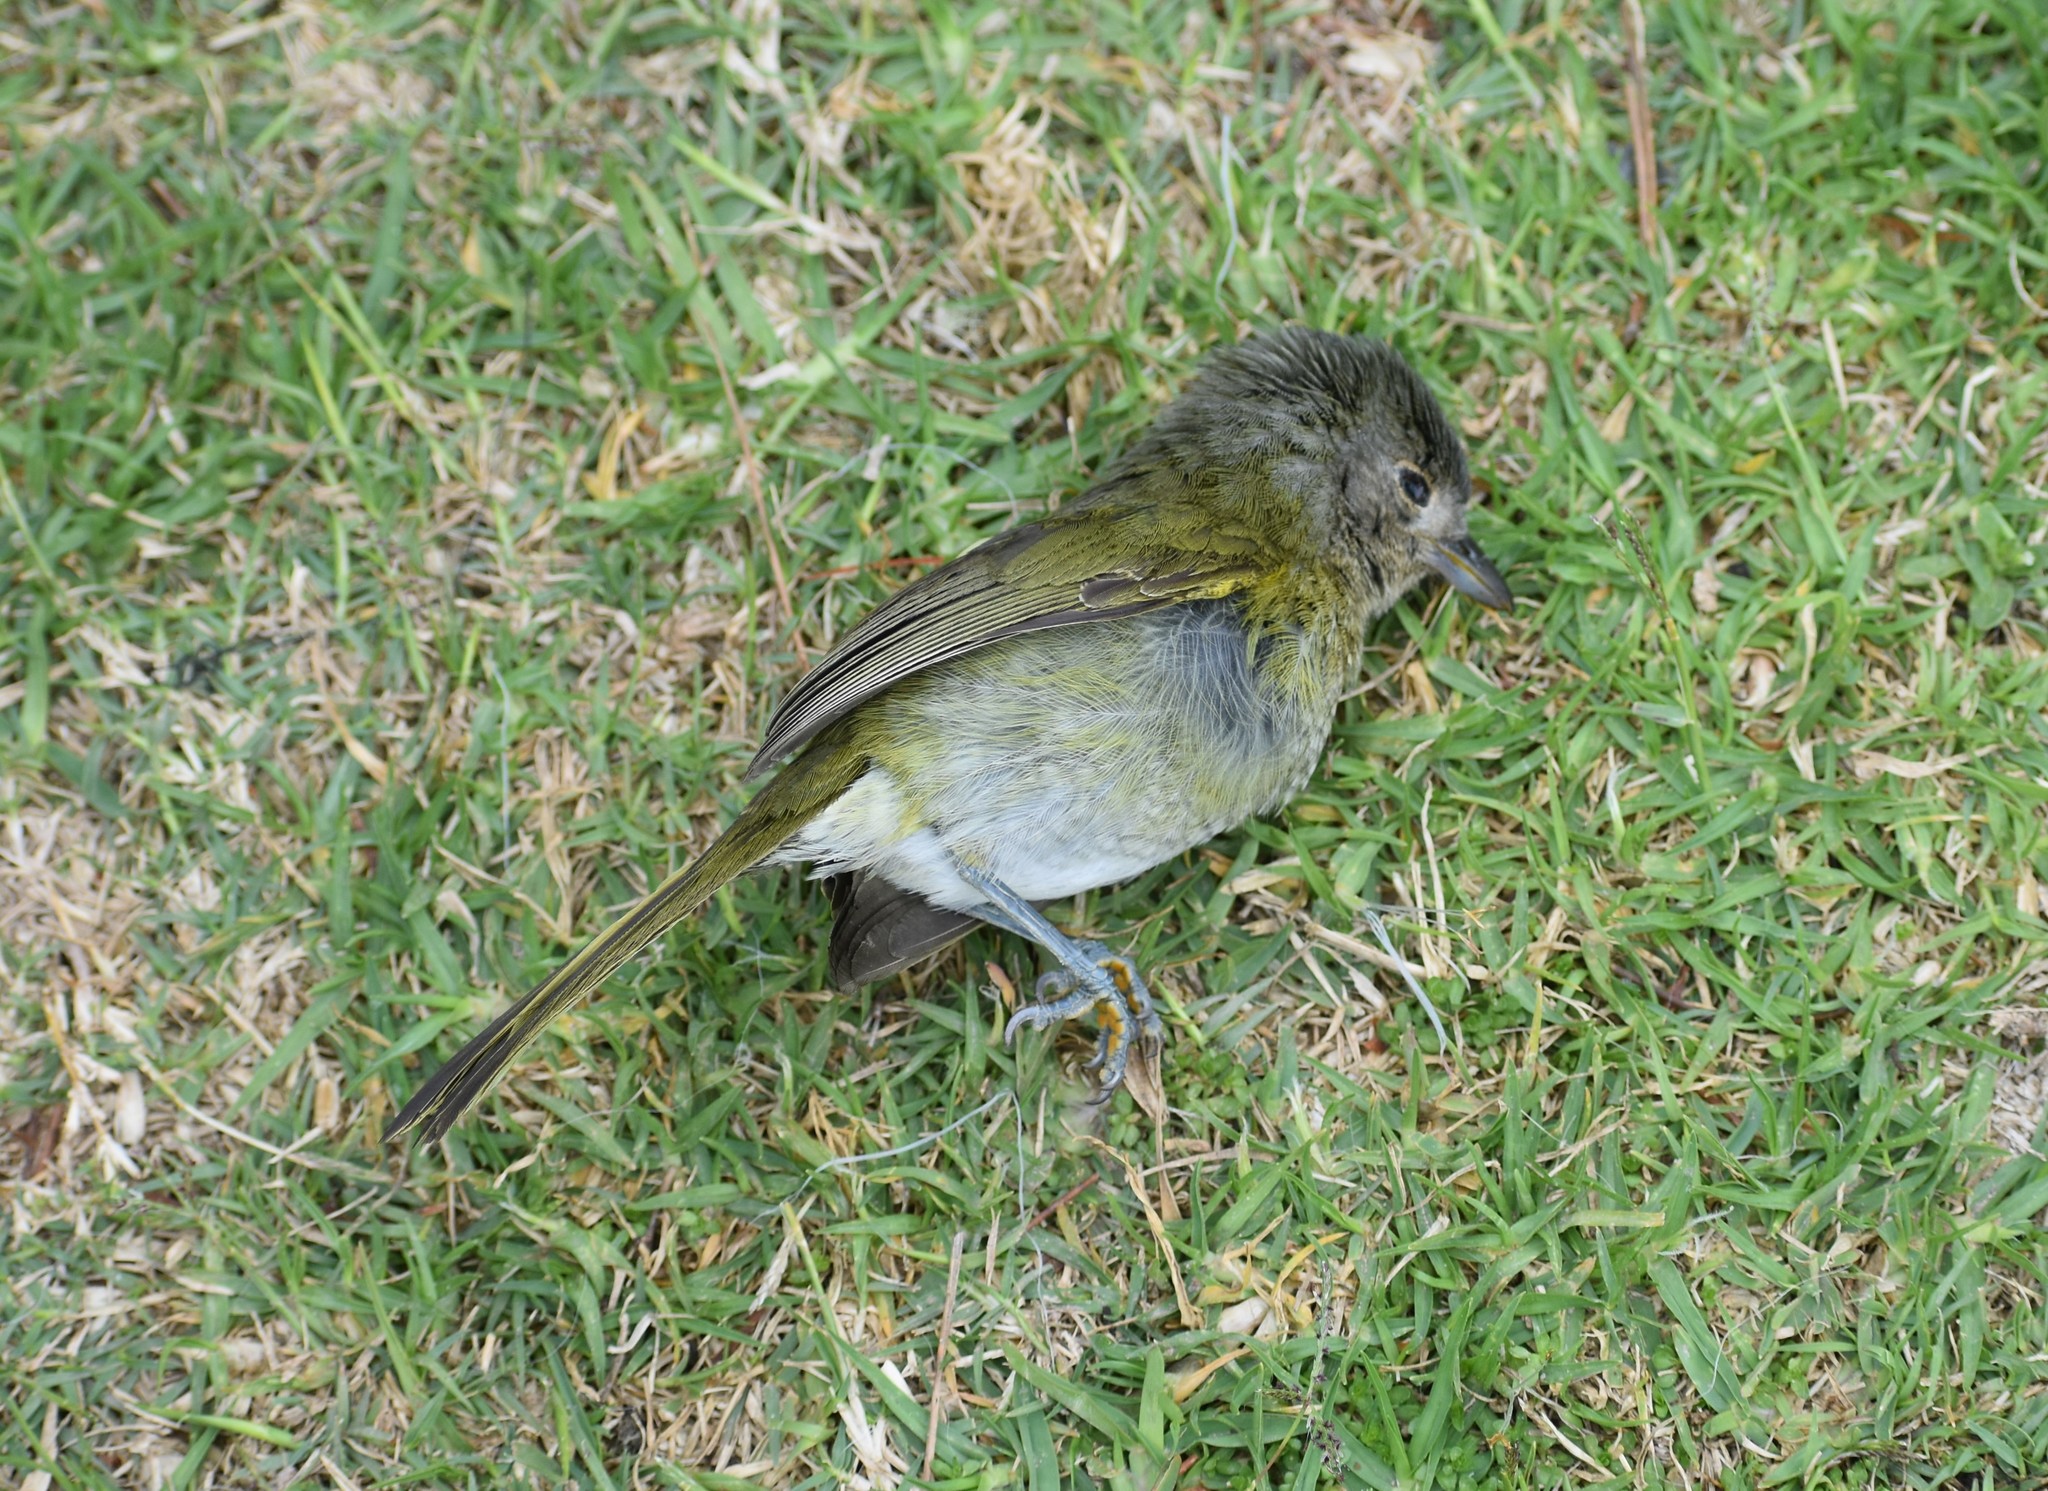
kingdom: Animalia
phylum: Chordata
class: Aves
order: Passeriformes
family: Malaconotidae
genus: Chlorophoneus
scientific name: Chlorophoneus olivaceus
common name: Olive bushshrike
